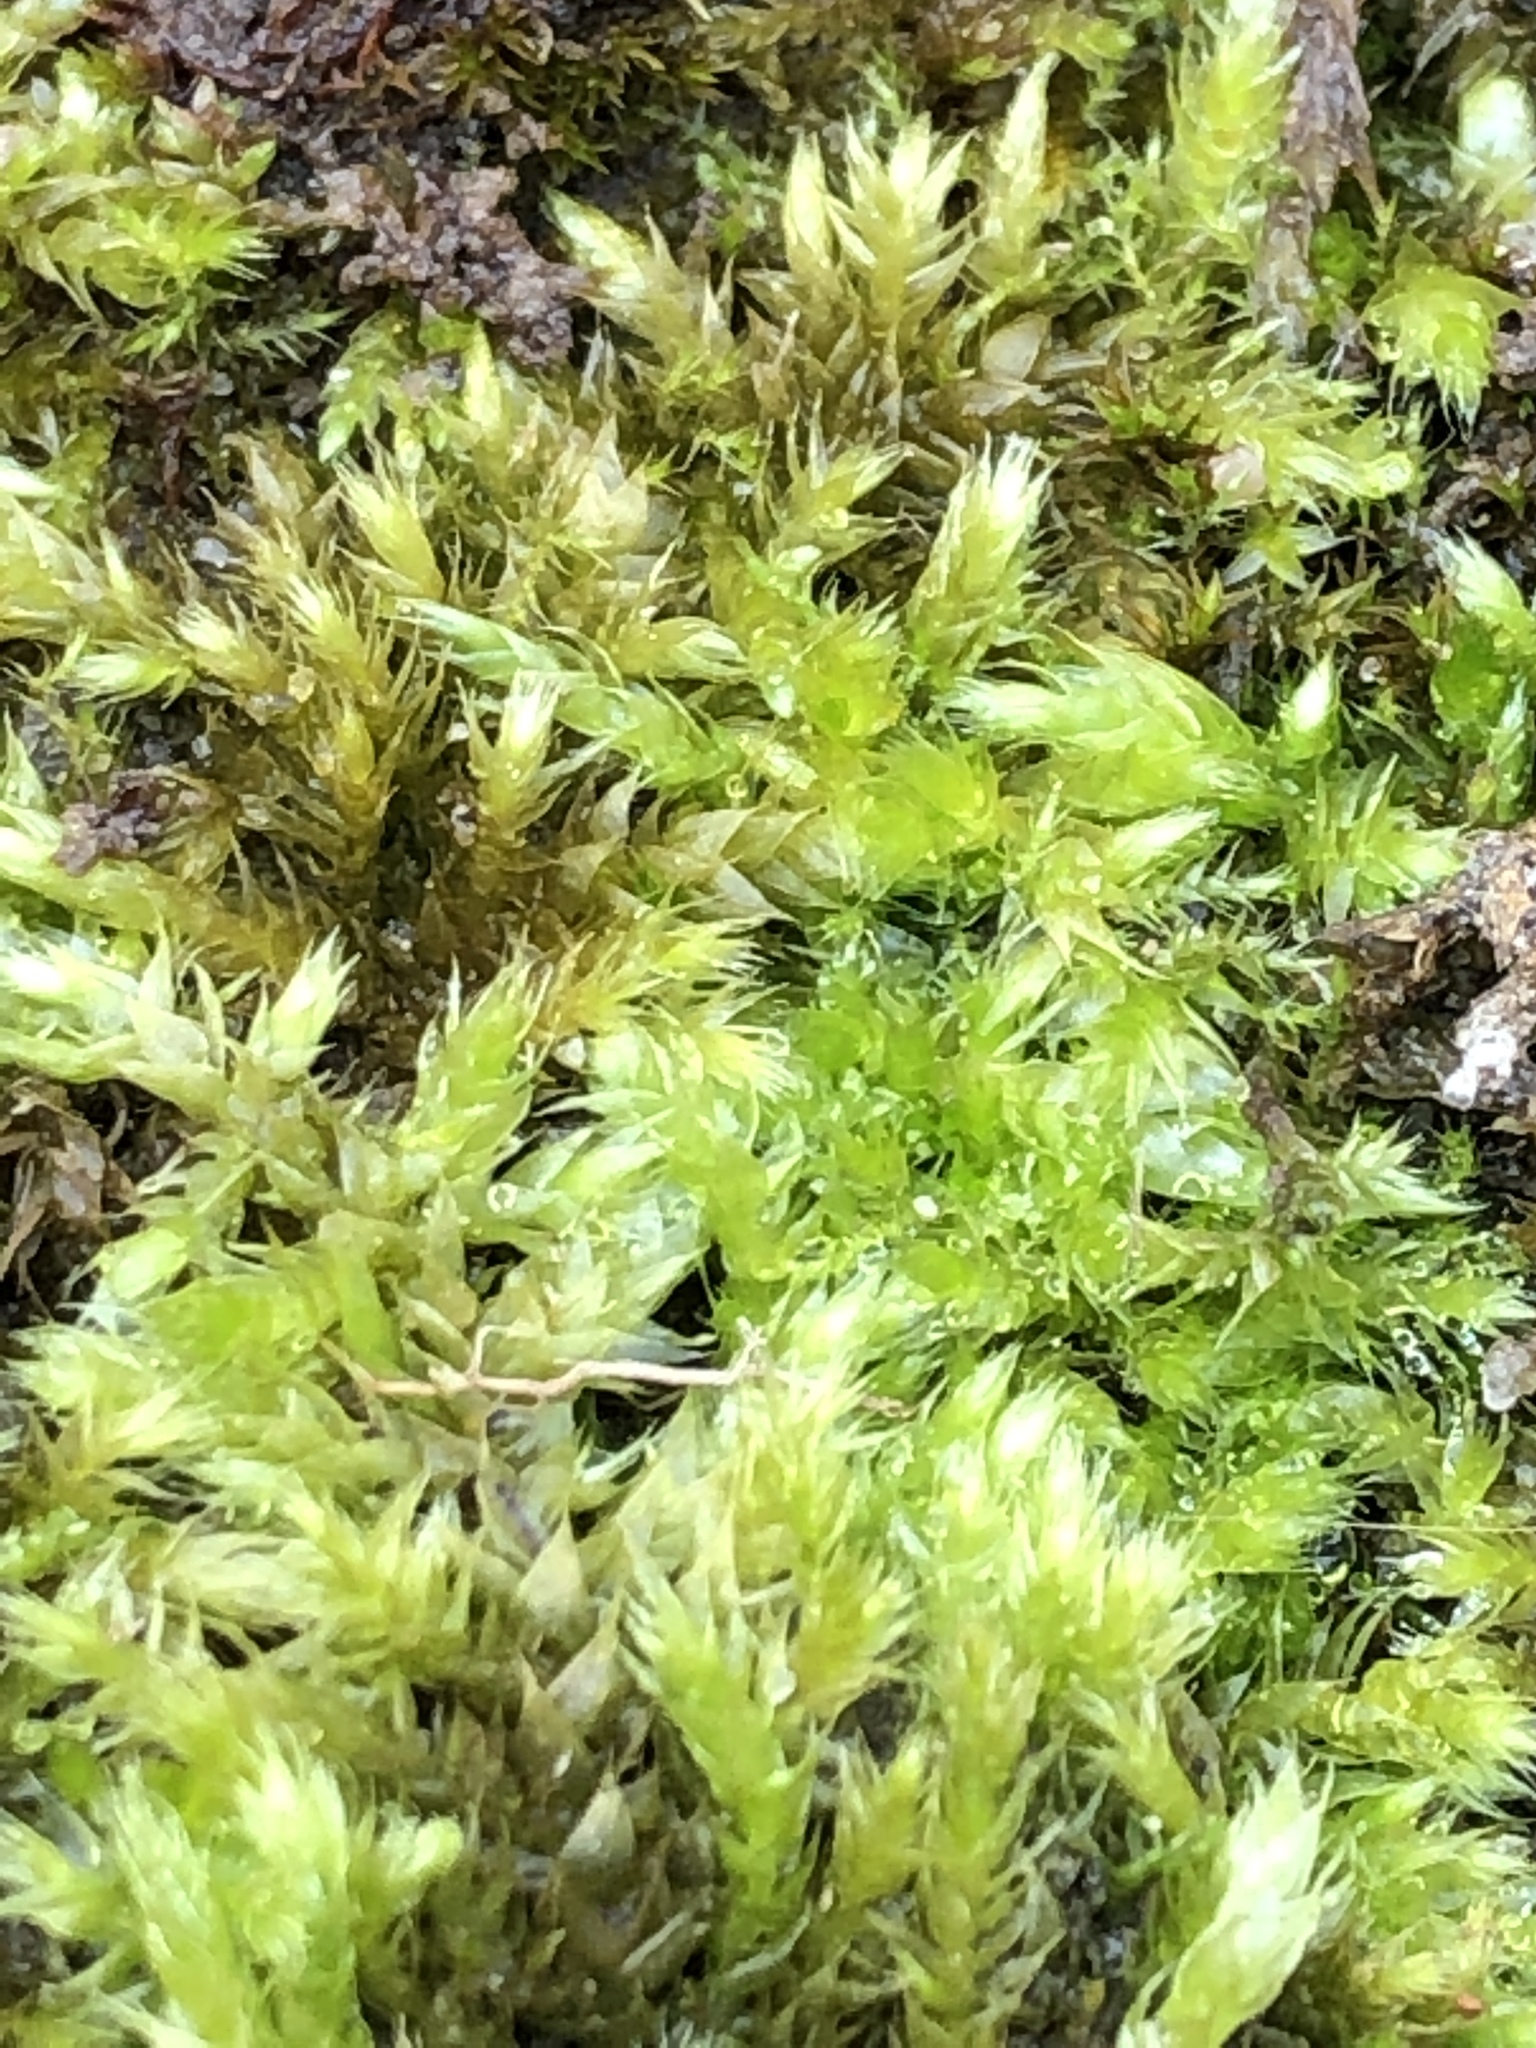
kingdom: Plantae
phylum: Bryophyta
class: Bryopsida
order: Hypnales
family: Hypnaceae
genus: Hypnum
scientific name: Hypnum cupressiforme
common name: Cypress-leaved plait-moss
